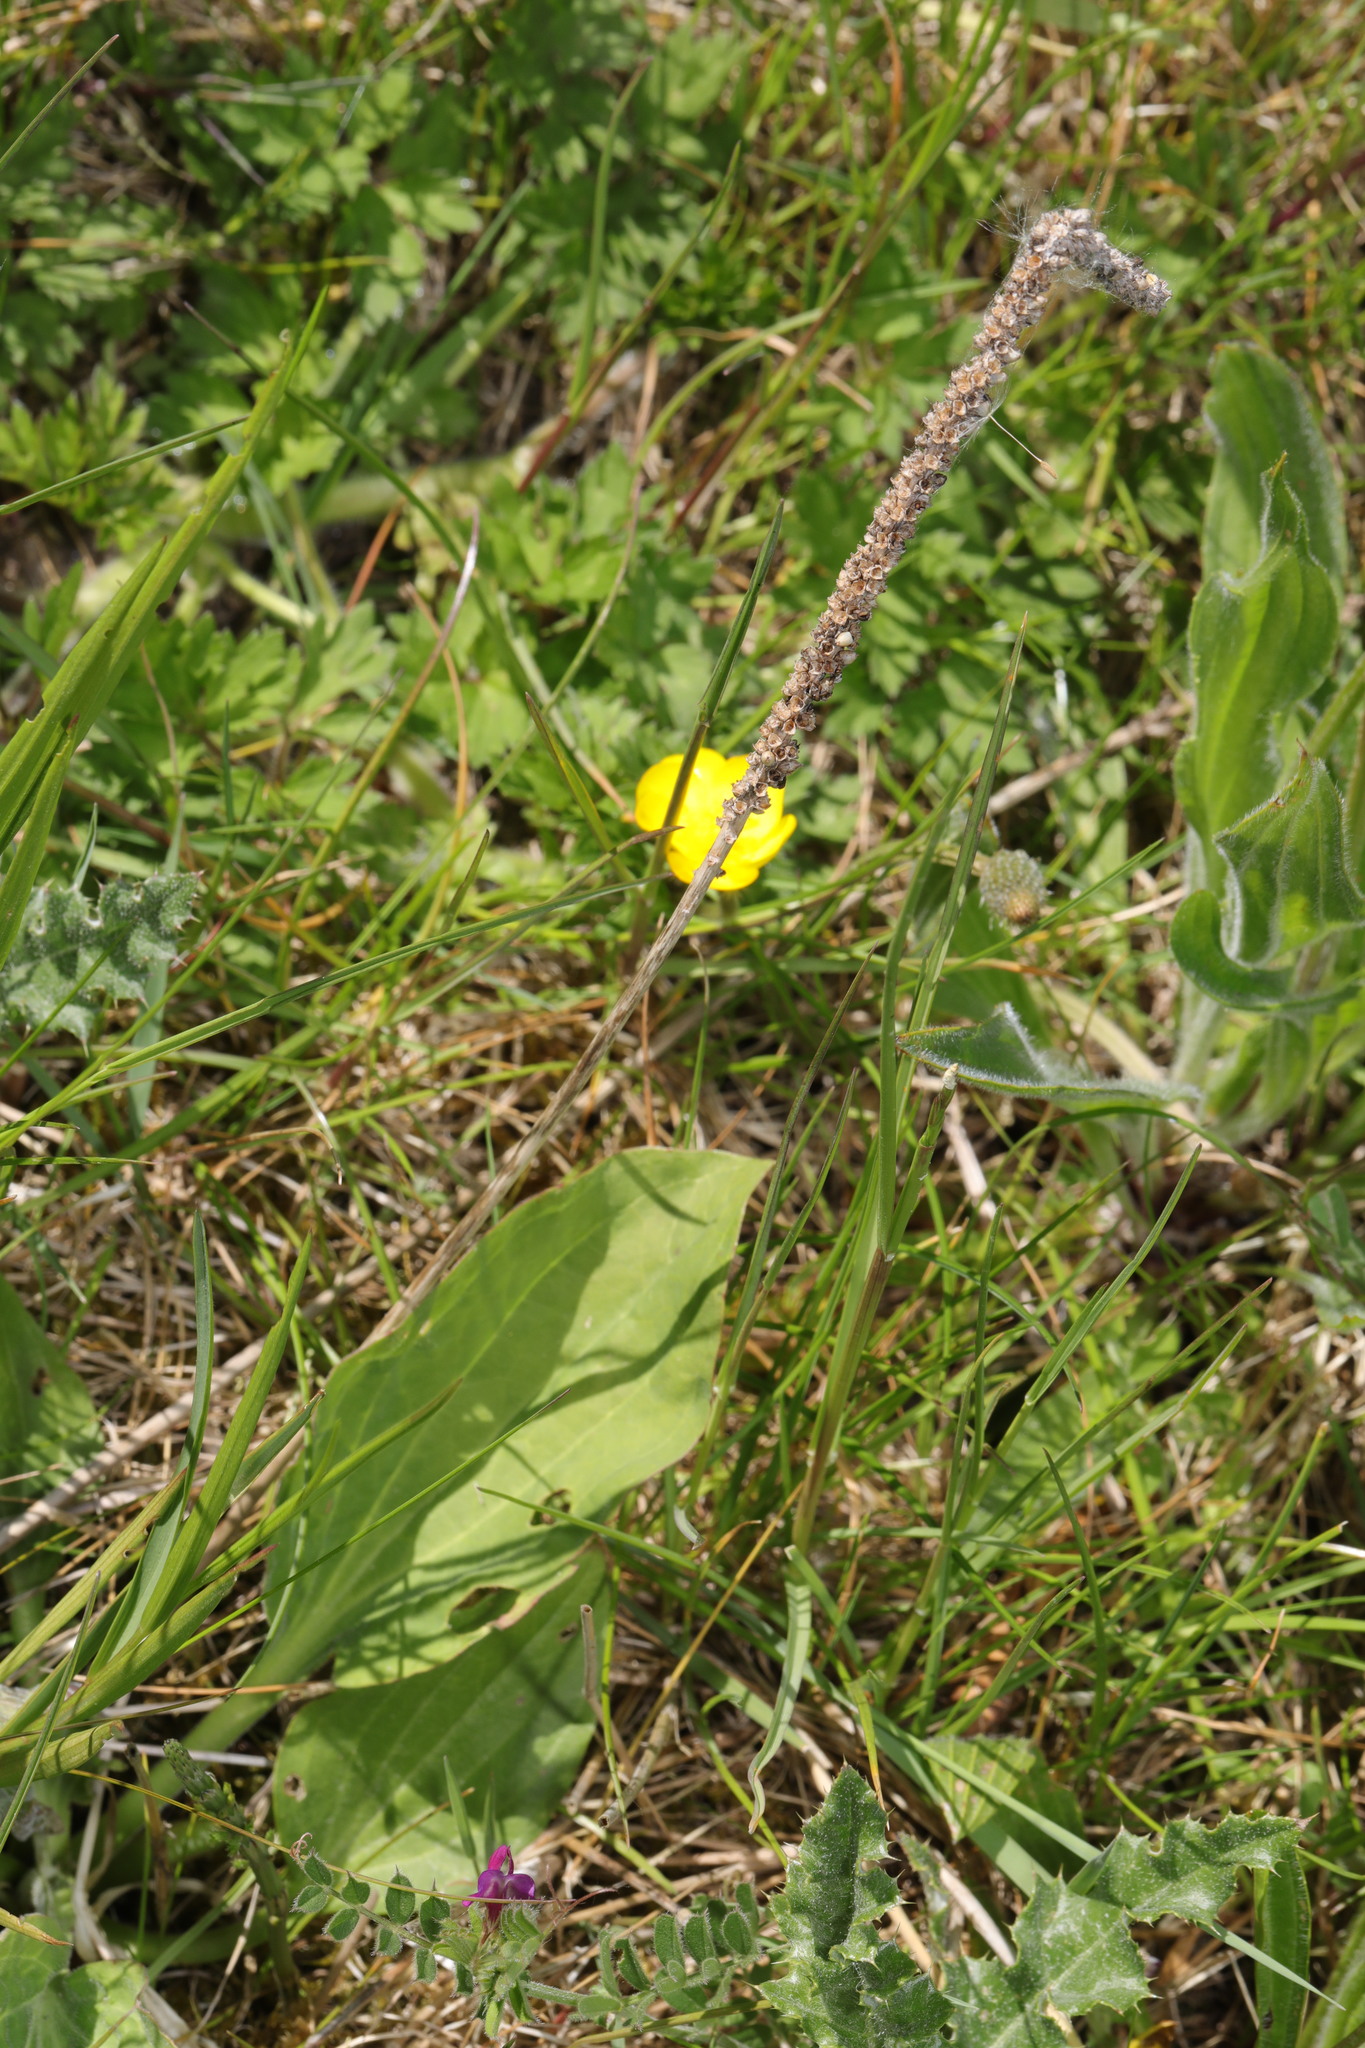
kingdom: Plantae
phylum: Tracheophyta
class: Magnoliopsida
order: Lamiales
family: Plantaginaceae
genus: Plantago
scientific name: Plantago major
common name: Common plantain
